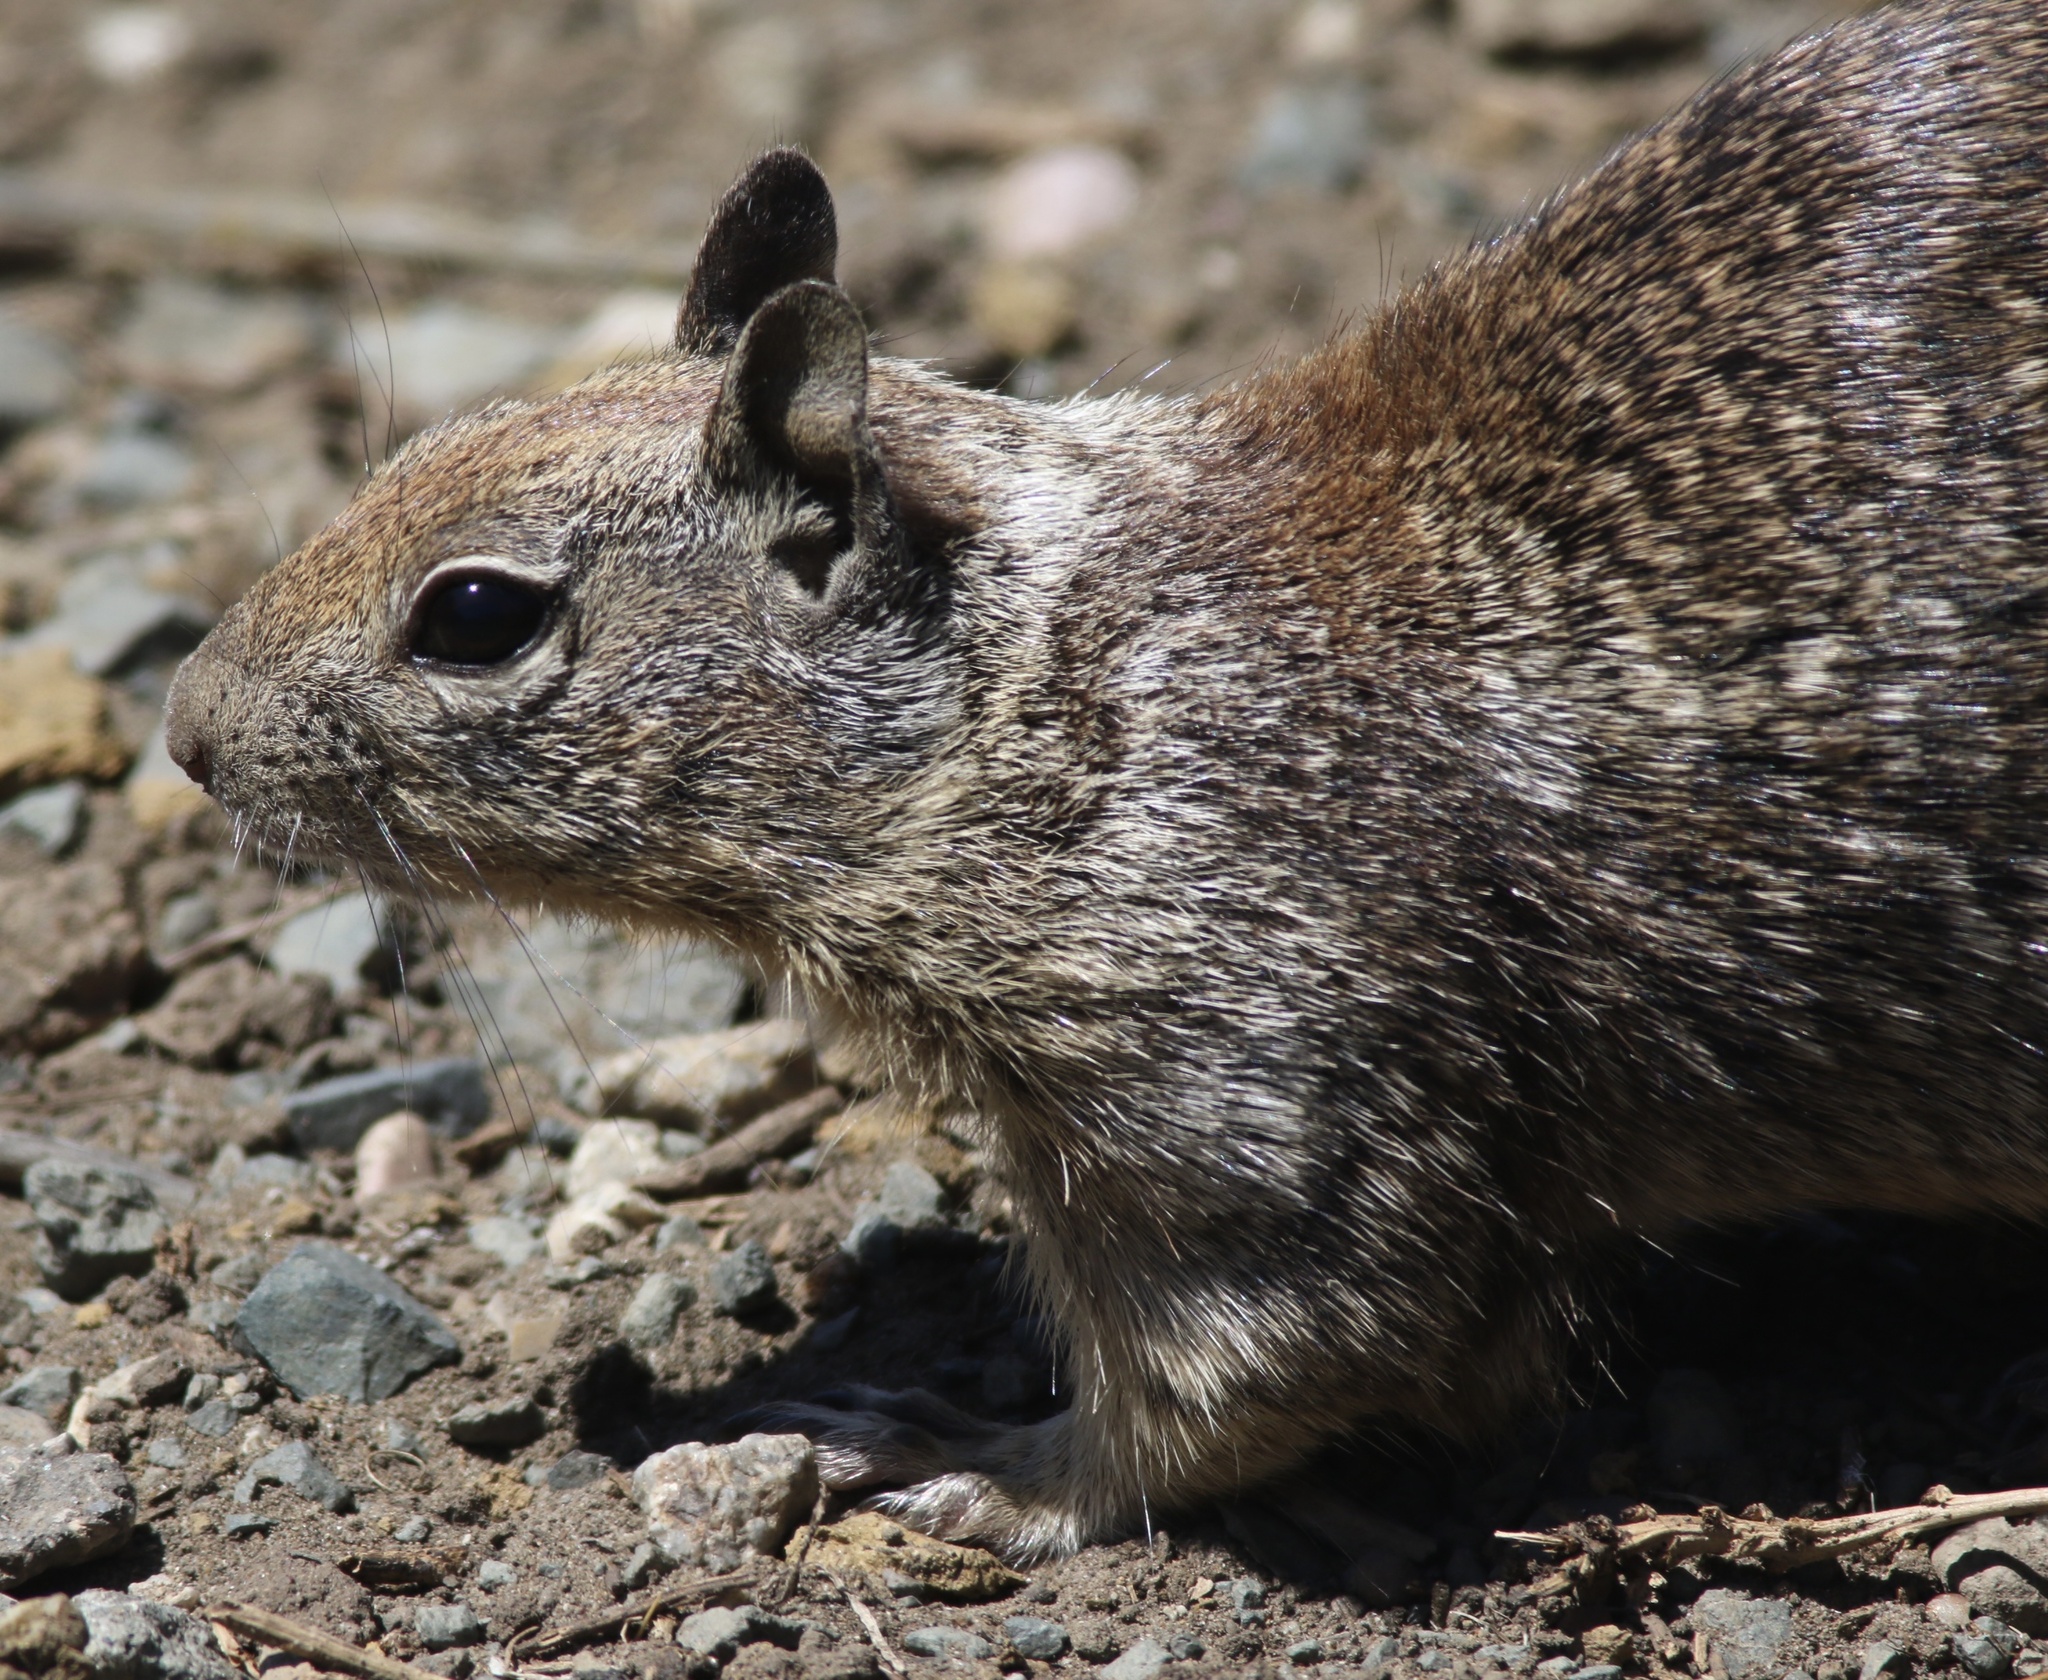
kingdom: Animalia
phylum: Chordata
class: Mammalia
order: Rodentia
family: Sciuridae
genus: Otospermophilus
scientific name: Otospermophilus beecheyi
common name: California ground squirrel
